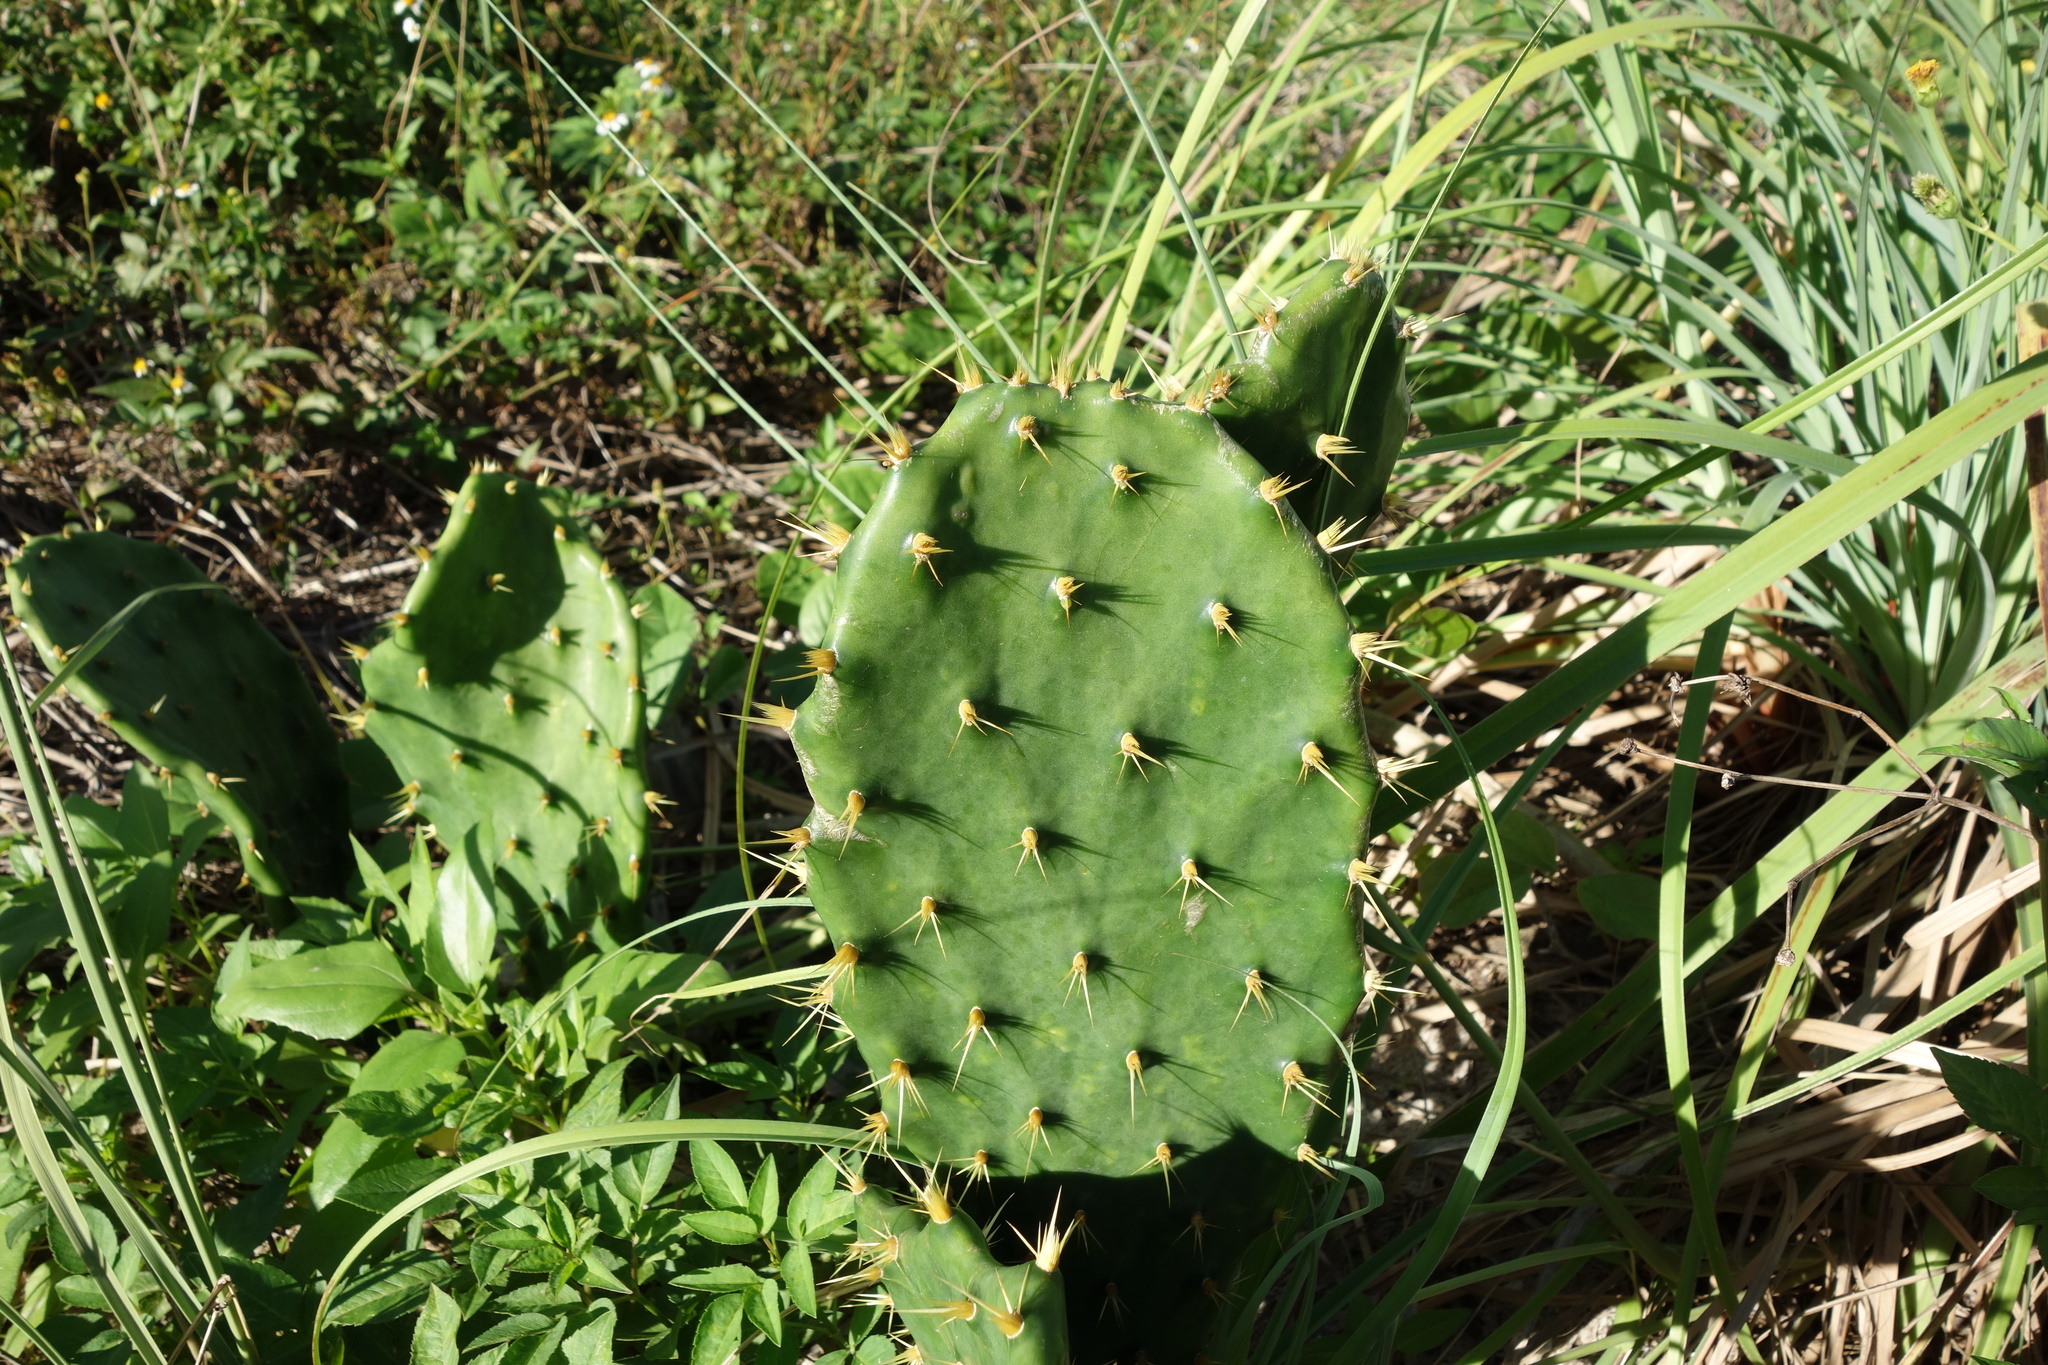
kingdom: Plantae
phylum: Tracheophyta
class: Magnoliopsida
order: Caryophyllales
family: Cactaceae
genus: Opuntia
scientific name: Opuntia stricta
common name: Erect pricklypear
